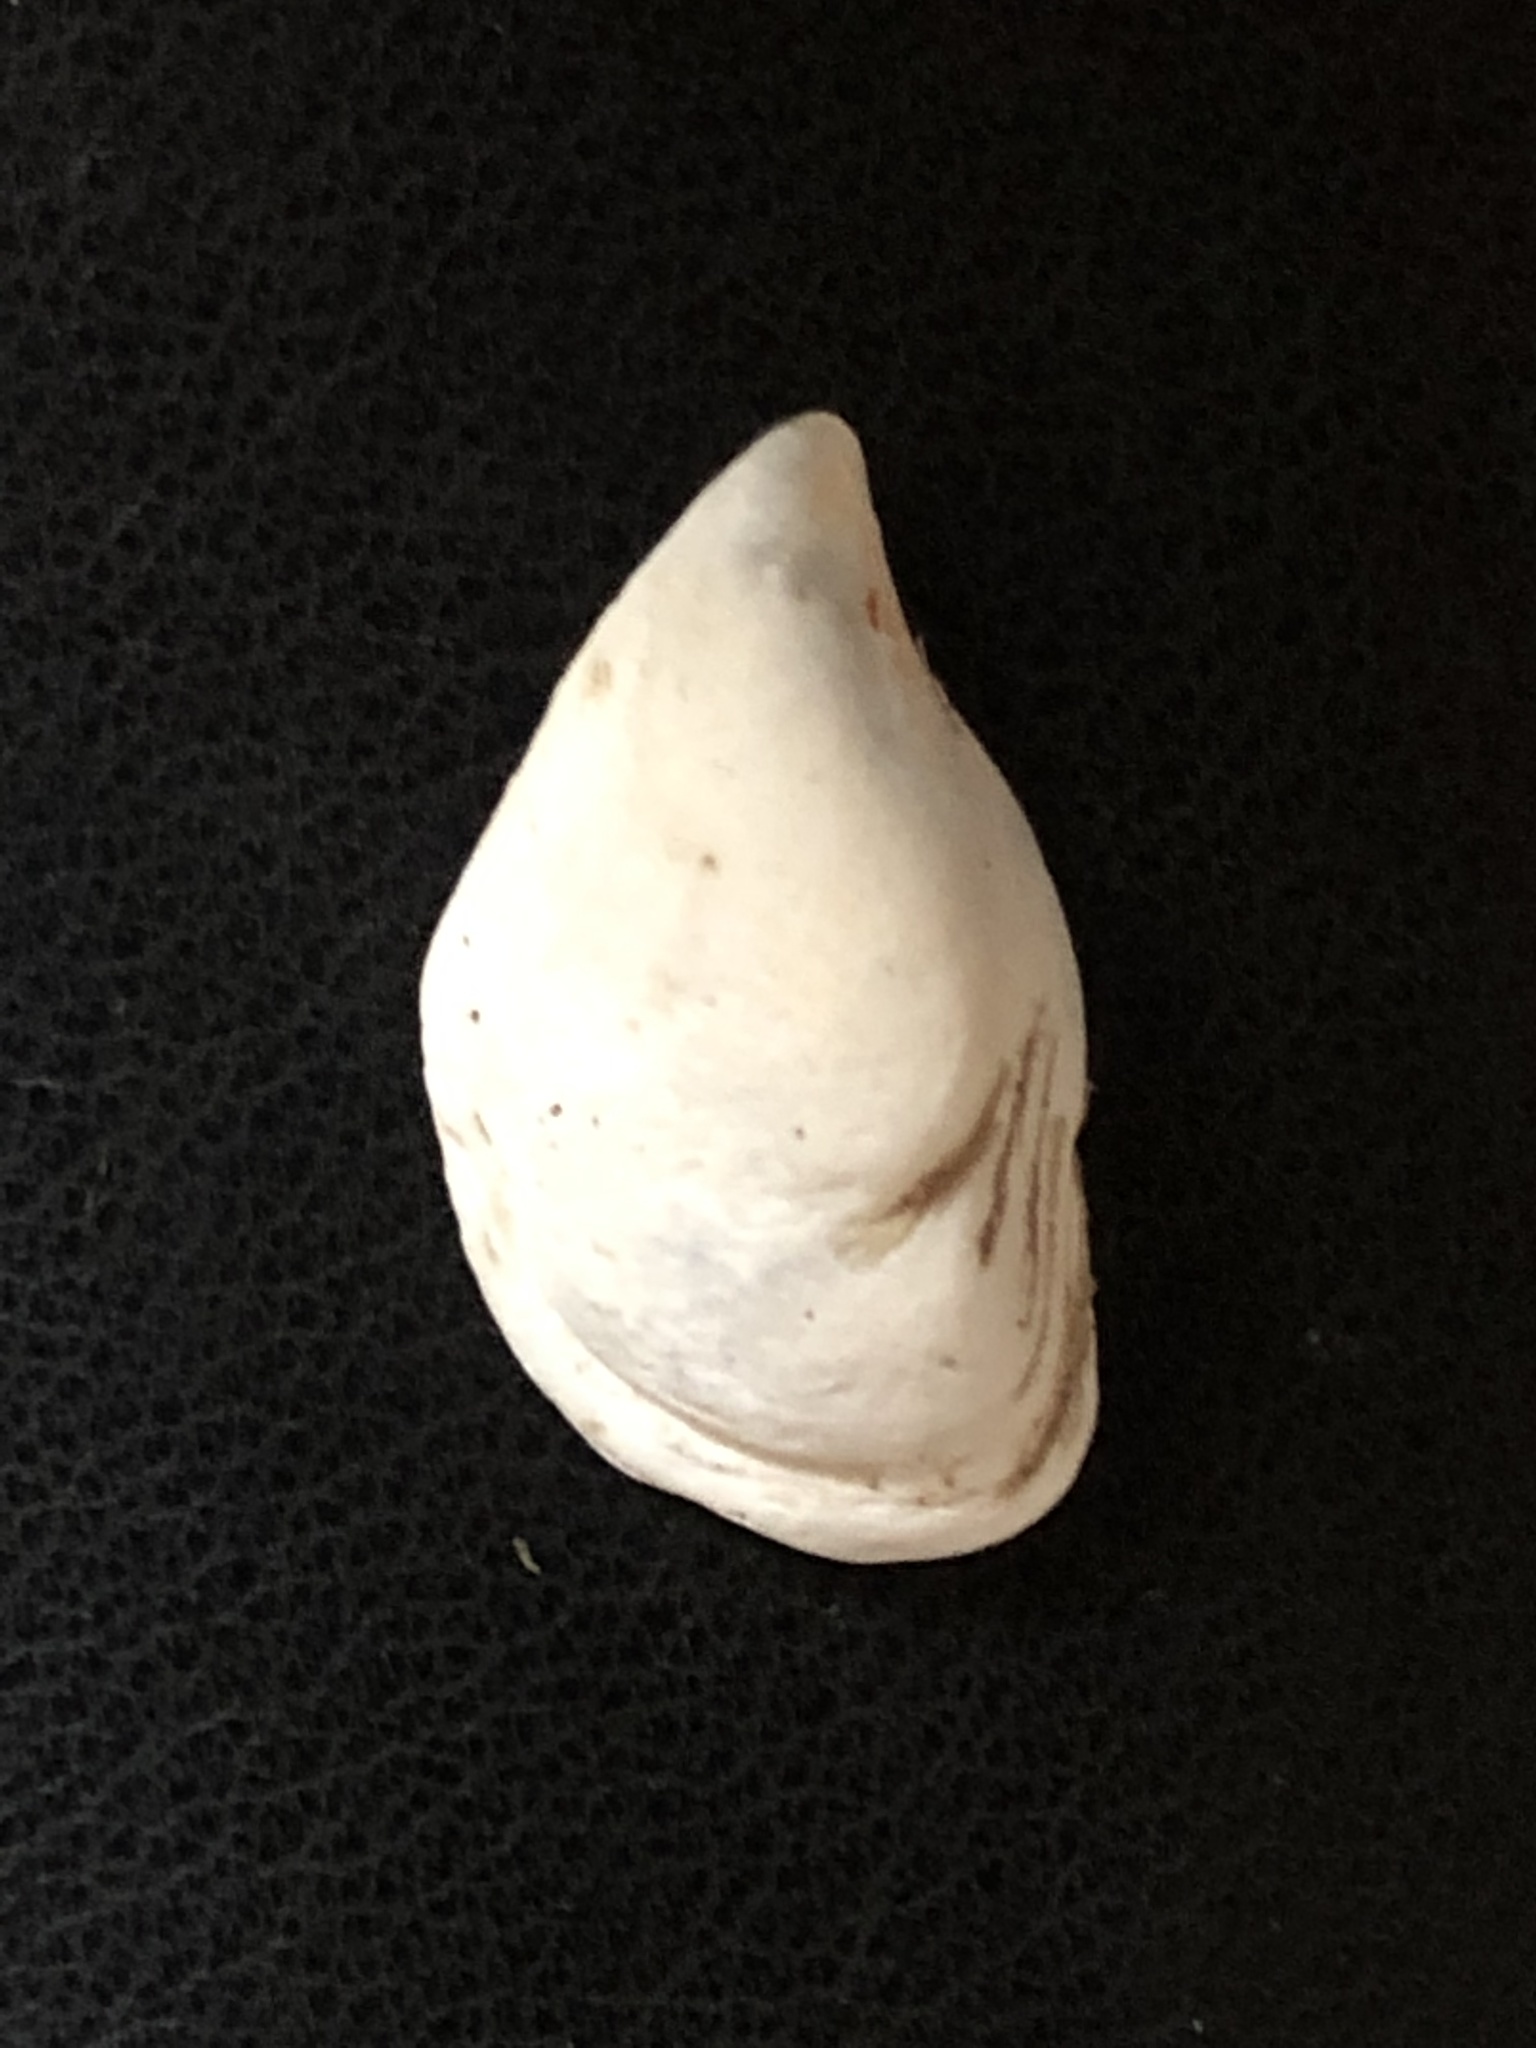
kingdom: Animalia
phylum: Mollusca
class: Bivalvia
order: Myida
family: Dreissenidae
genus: Dreissena
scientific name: Dreissena bugensis
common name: Quagga mussel
